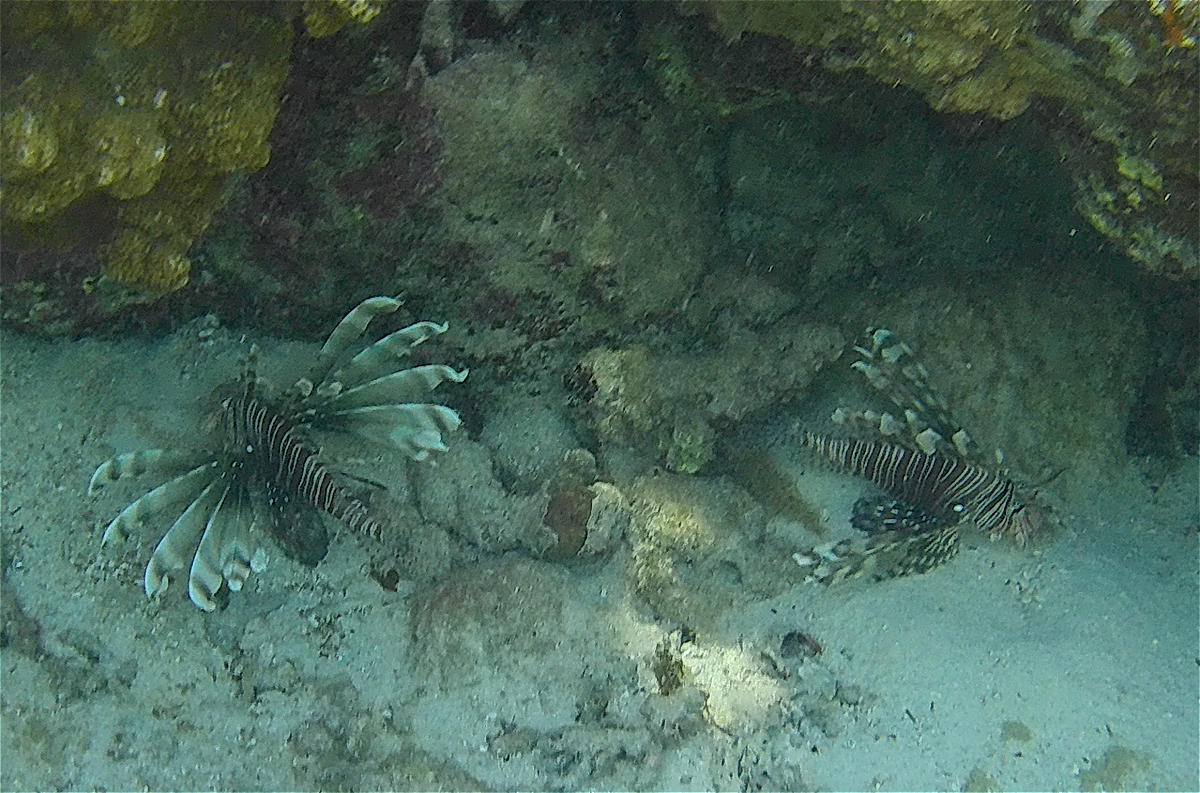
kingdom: Animalia
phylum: Chordata
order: Scorpaeniformes
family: Scorpaenidae
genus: Pterois
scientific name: Pterois miles
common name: Devil firefish
